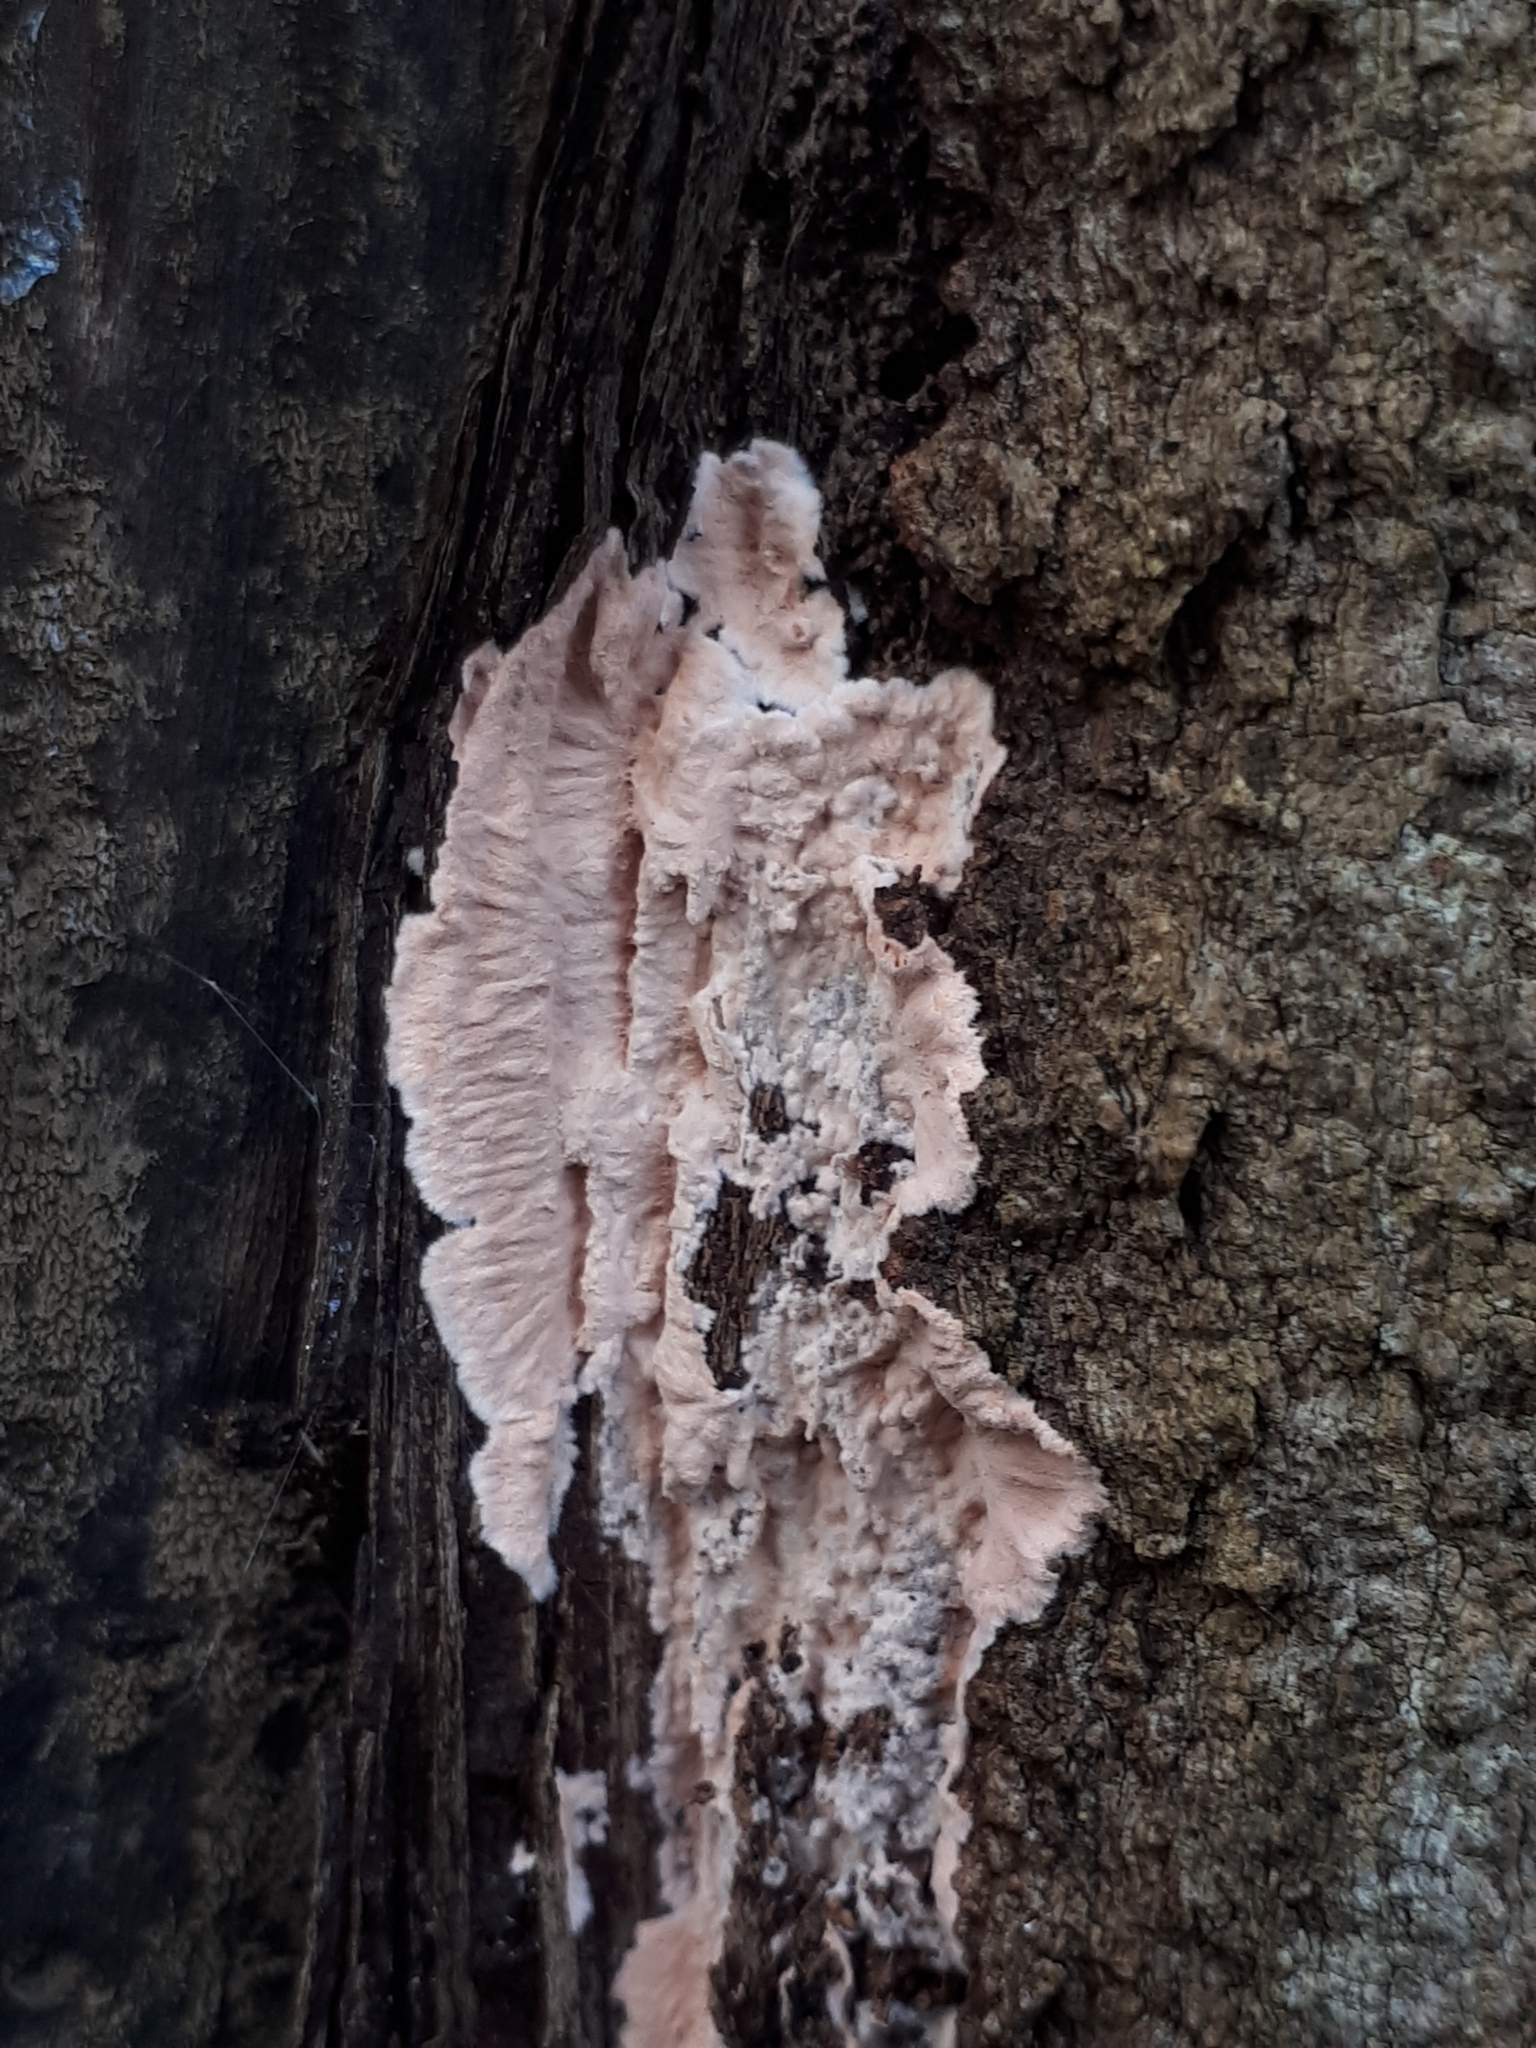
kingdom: Fungi
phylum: Basidiomycota
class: Agaricomycetes
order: Corticiales
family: Corticiaceae
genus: Corticium
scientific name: Corticium roseum
